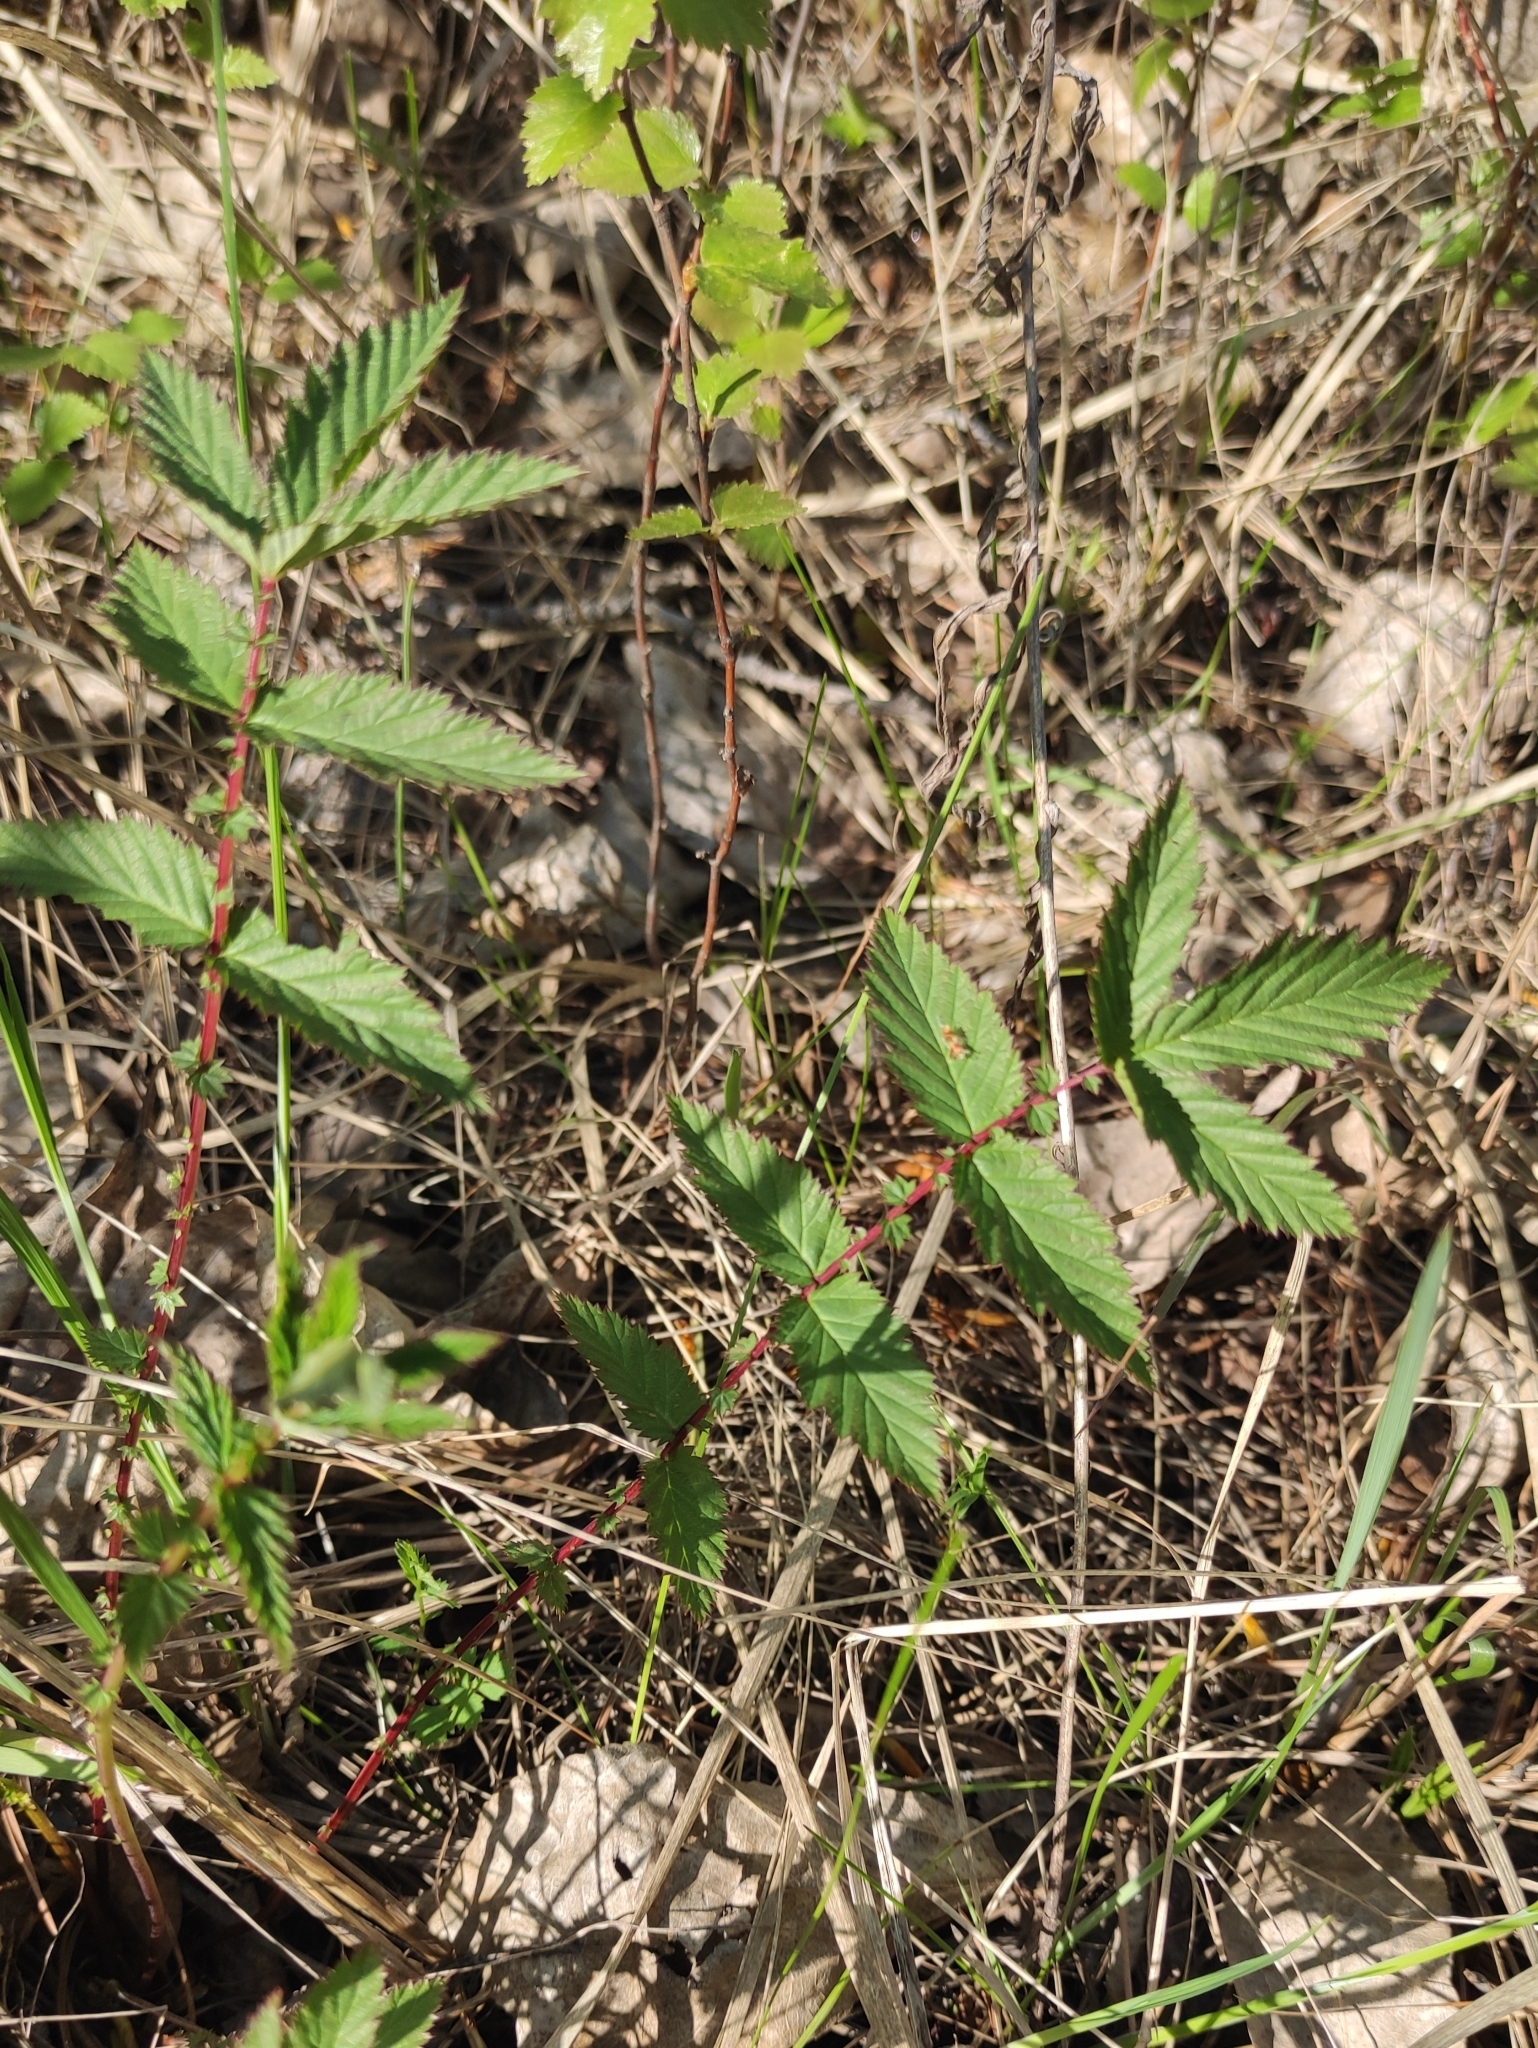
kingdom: Plantae
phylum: Tracheophyta
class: Magnoliopsida
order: Rosales
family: Rosaceae
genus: Filipendula
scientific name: Filipendula ulmaria
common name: Meadowsweet
